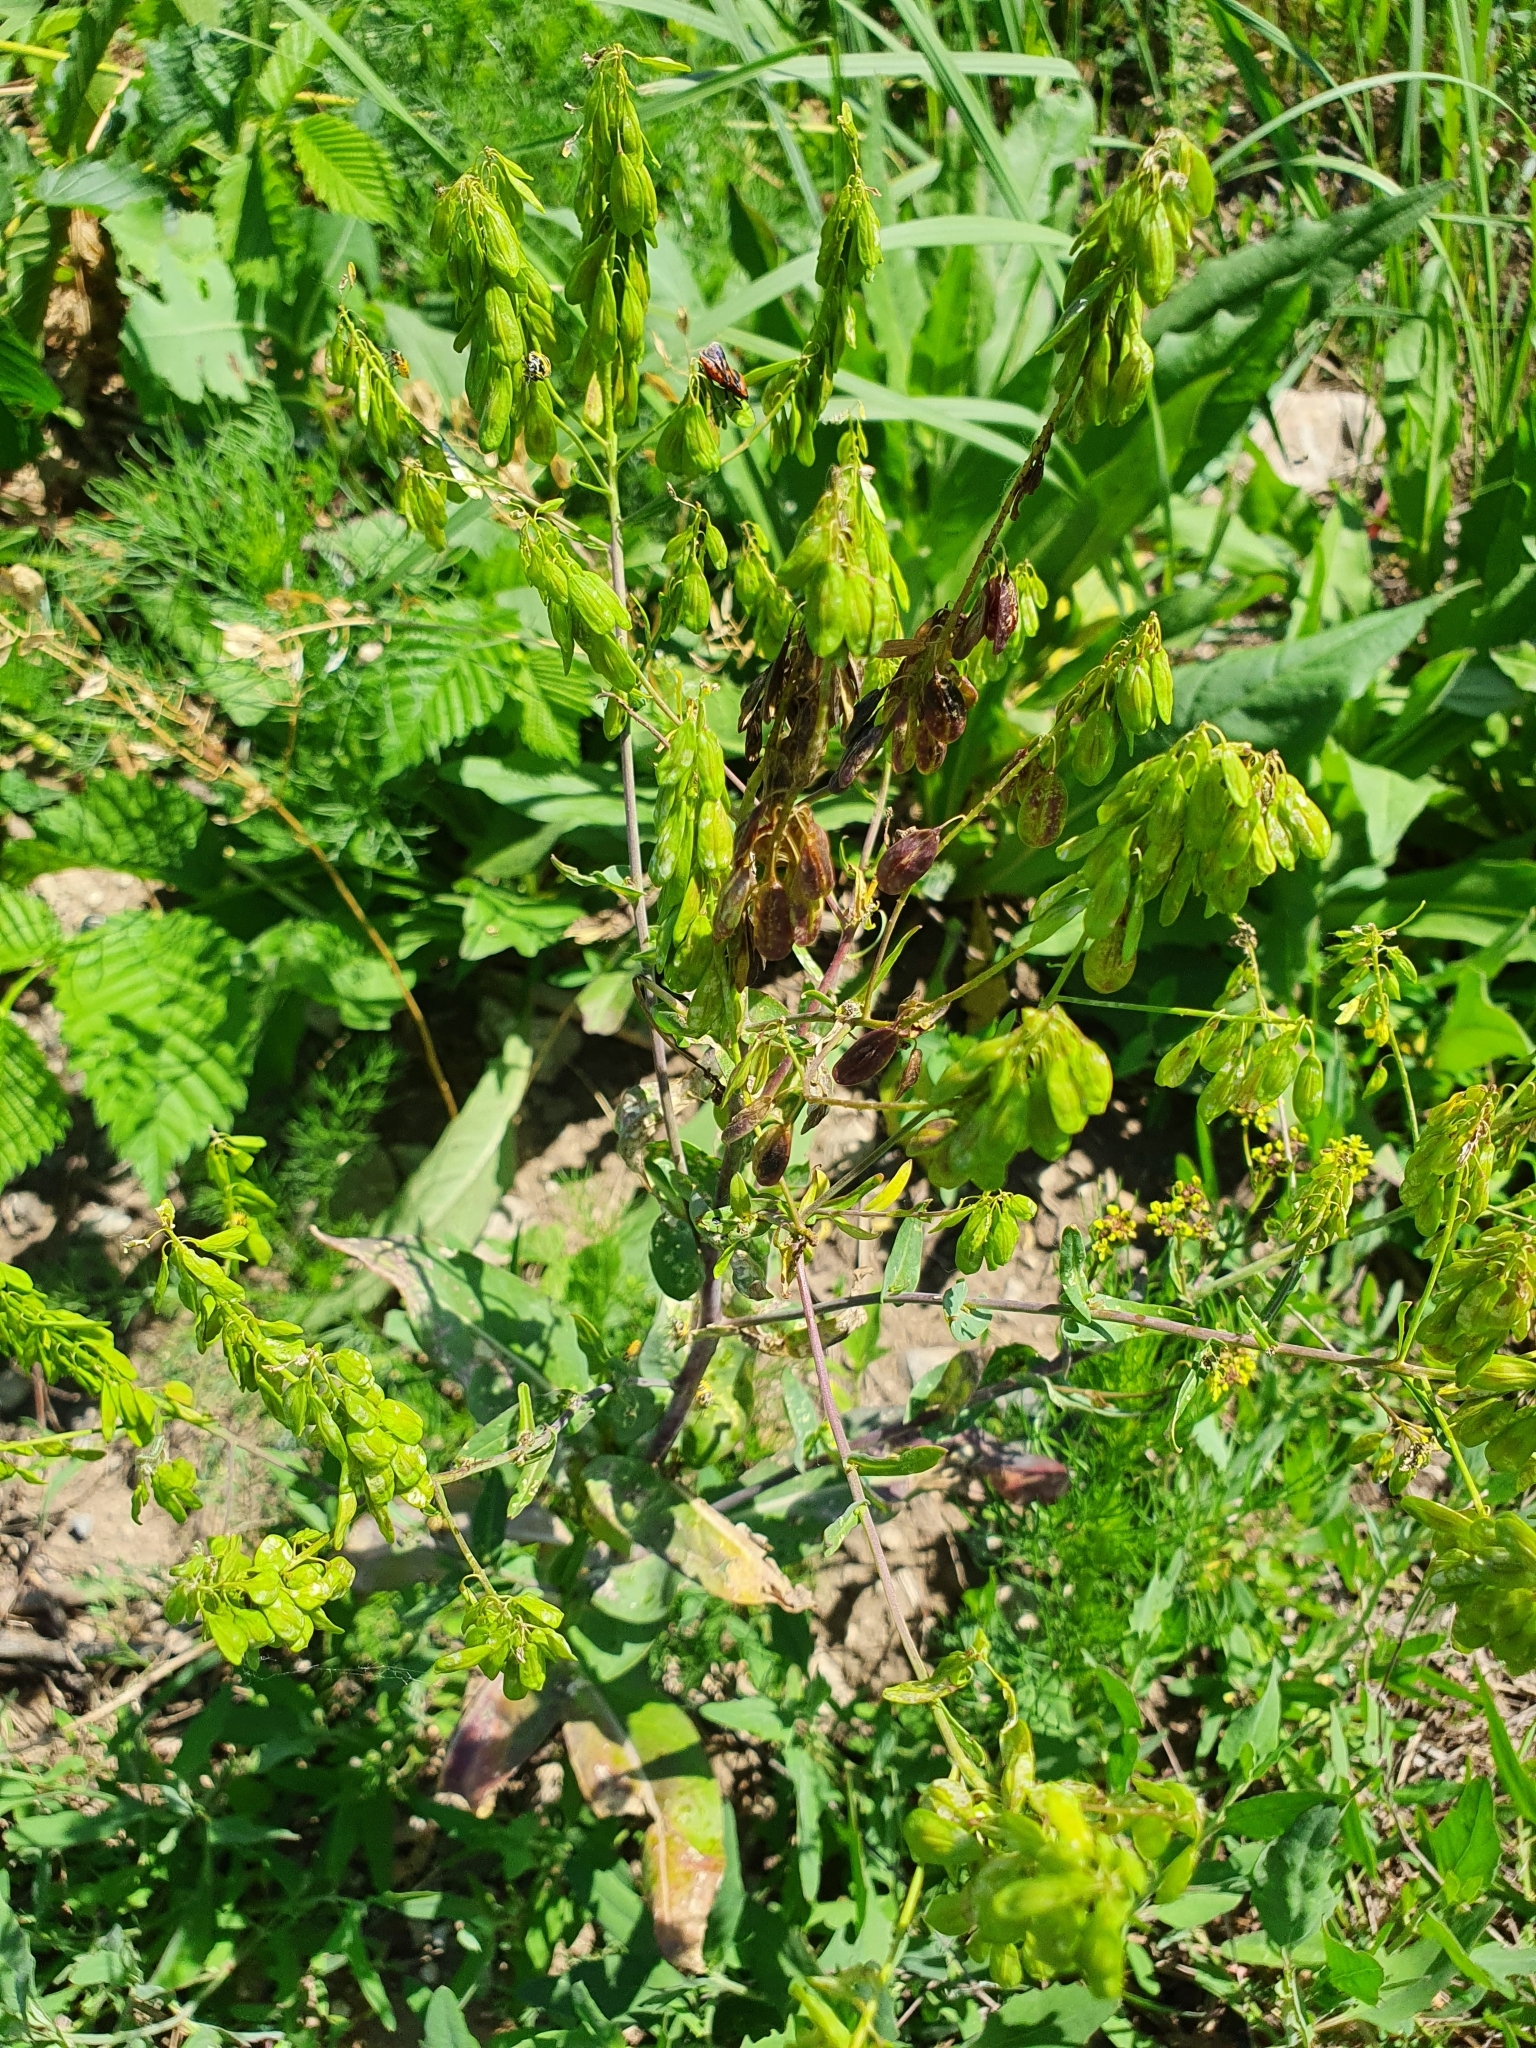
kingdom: Plantae
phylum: Tracheophyta
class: Magnoliopsida
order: Brassicales
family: Brassicaceae
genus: Isatis
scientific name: Isatis tinctoria
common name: Woad
